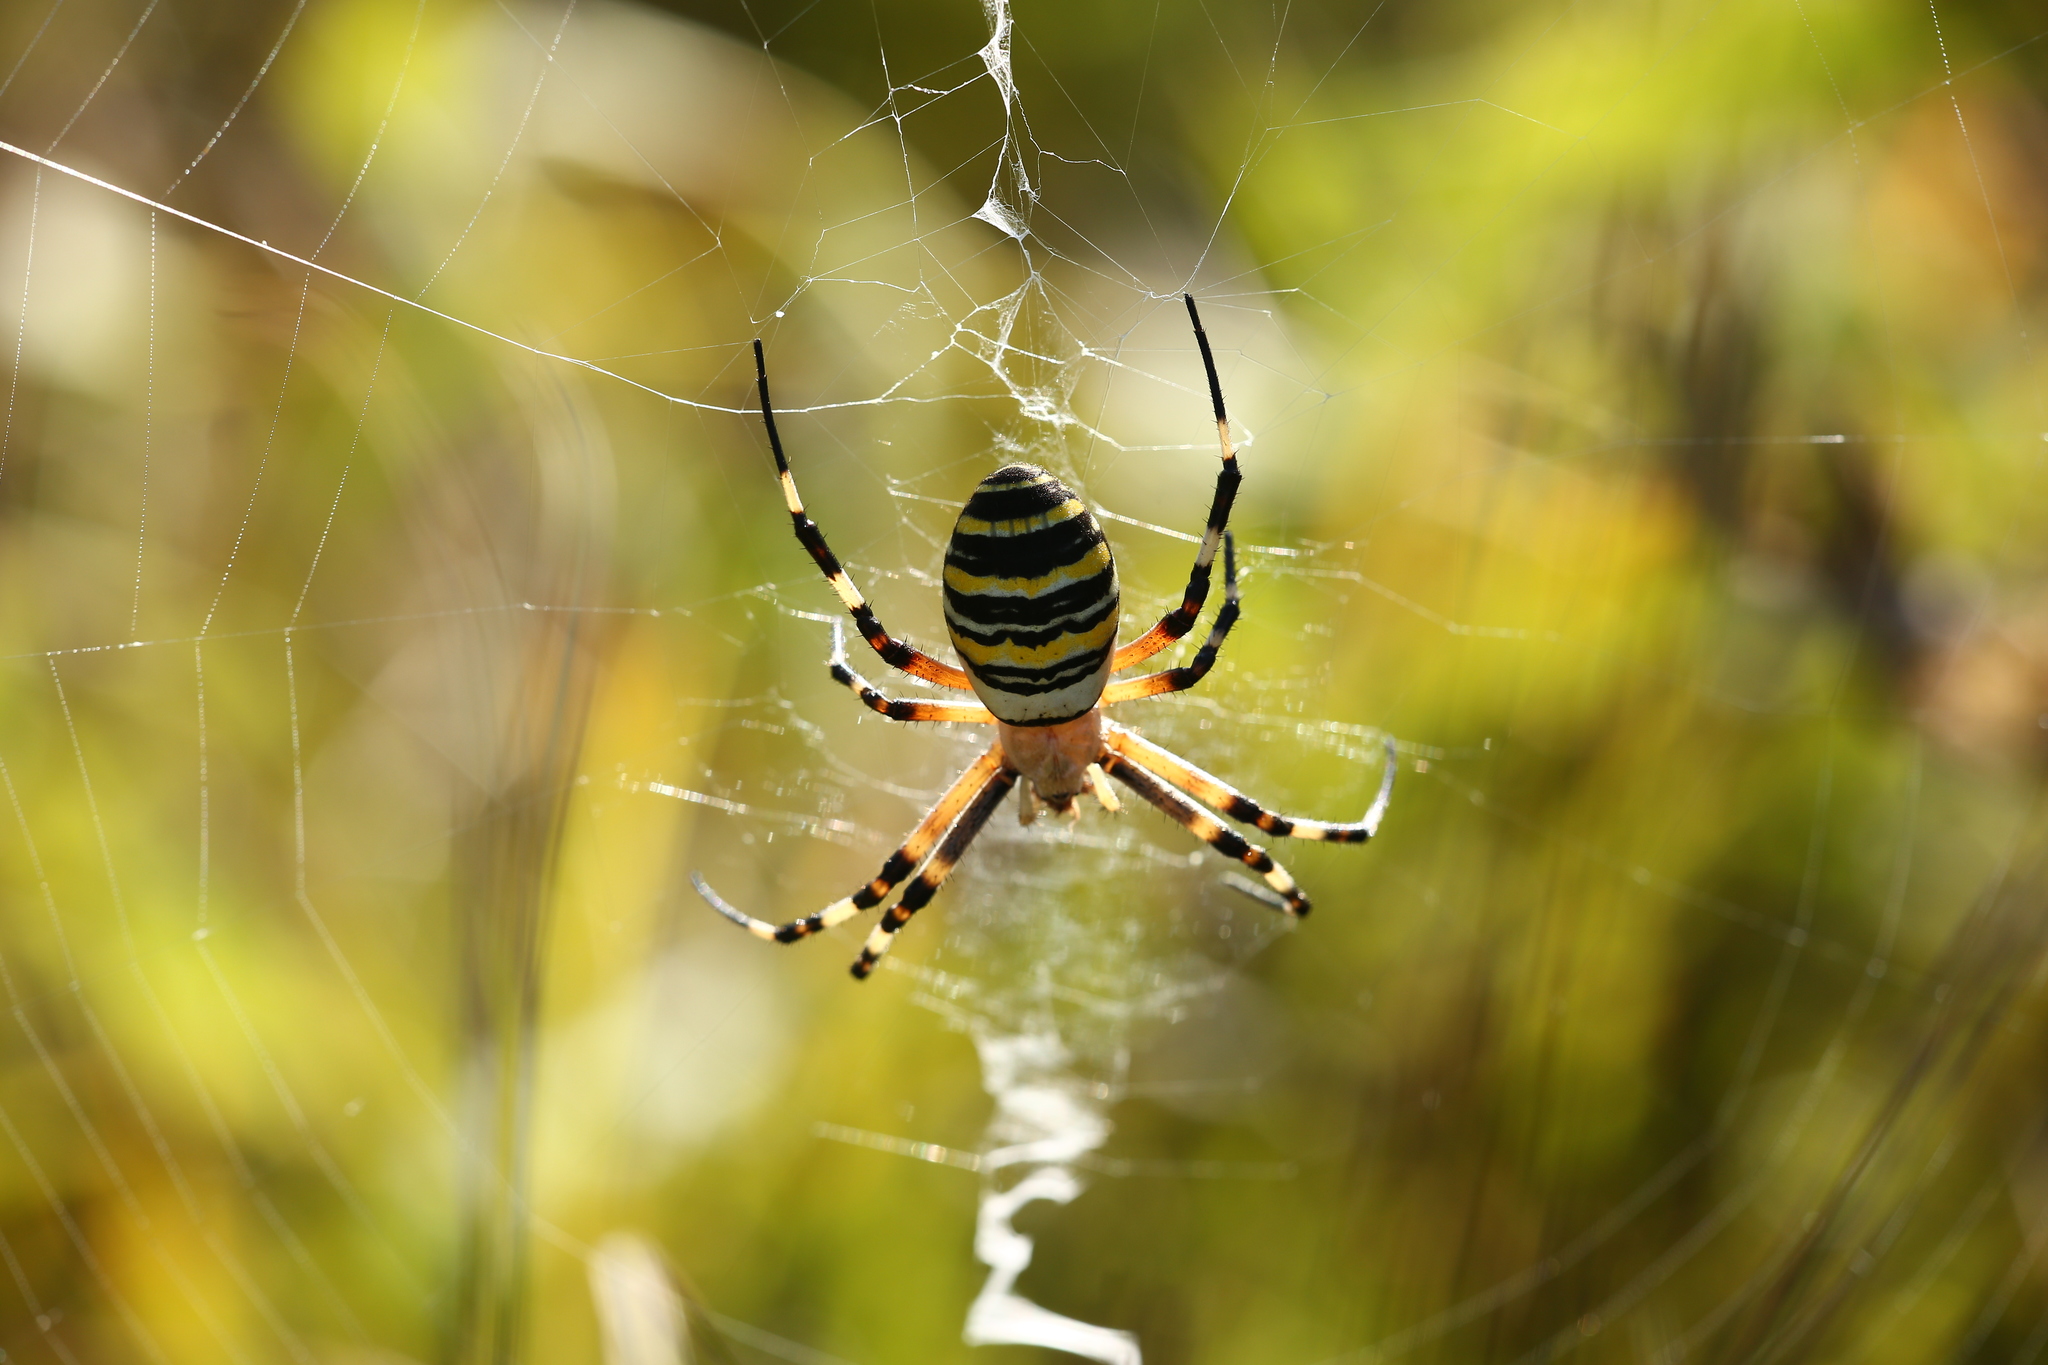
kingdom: Animalia
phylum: Arthropoda
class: Arachnida
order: Araneae
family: Araneidae
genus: Argiope
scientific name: Argiope bruennichi
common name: Wasp spider
